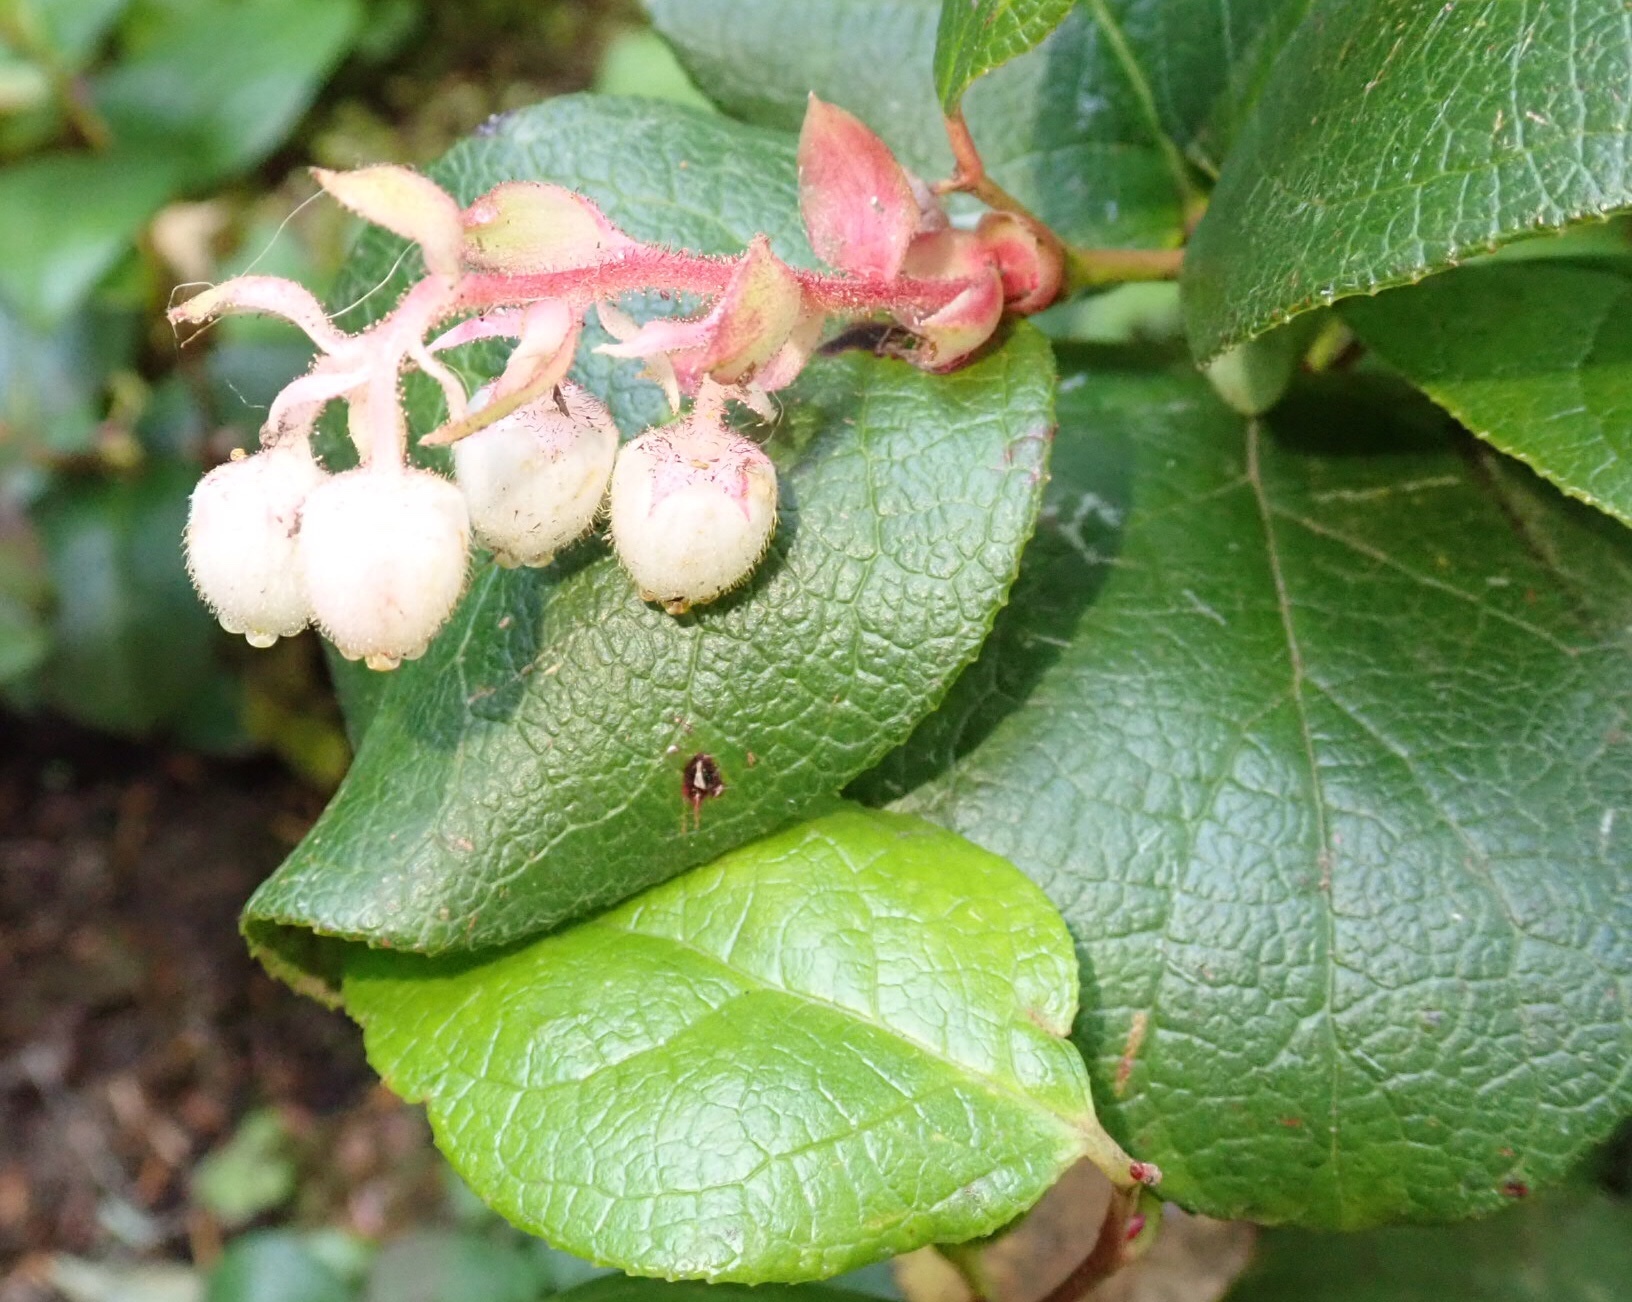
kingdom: Plantae
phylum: Tracheophyta
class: Magnoliopsida
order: Ericales
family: Ericaceae
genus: Gaultheria
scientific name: Gaultheria shallon
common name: Shallon
